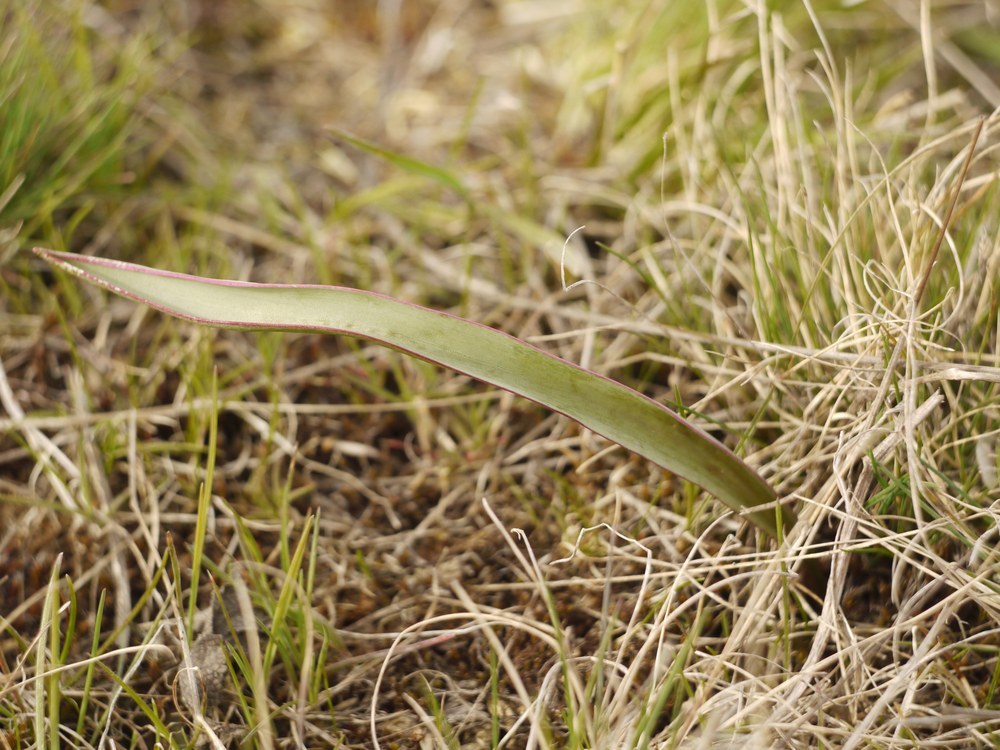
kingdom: Plantae
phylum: Tracheophyta
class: Liliopsida
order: Liliales
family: Liliaceae
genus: Tulipa
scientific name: Tulipa sylvestris
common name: Wild tulip
